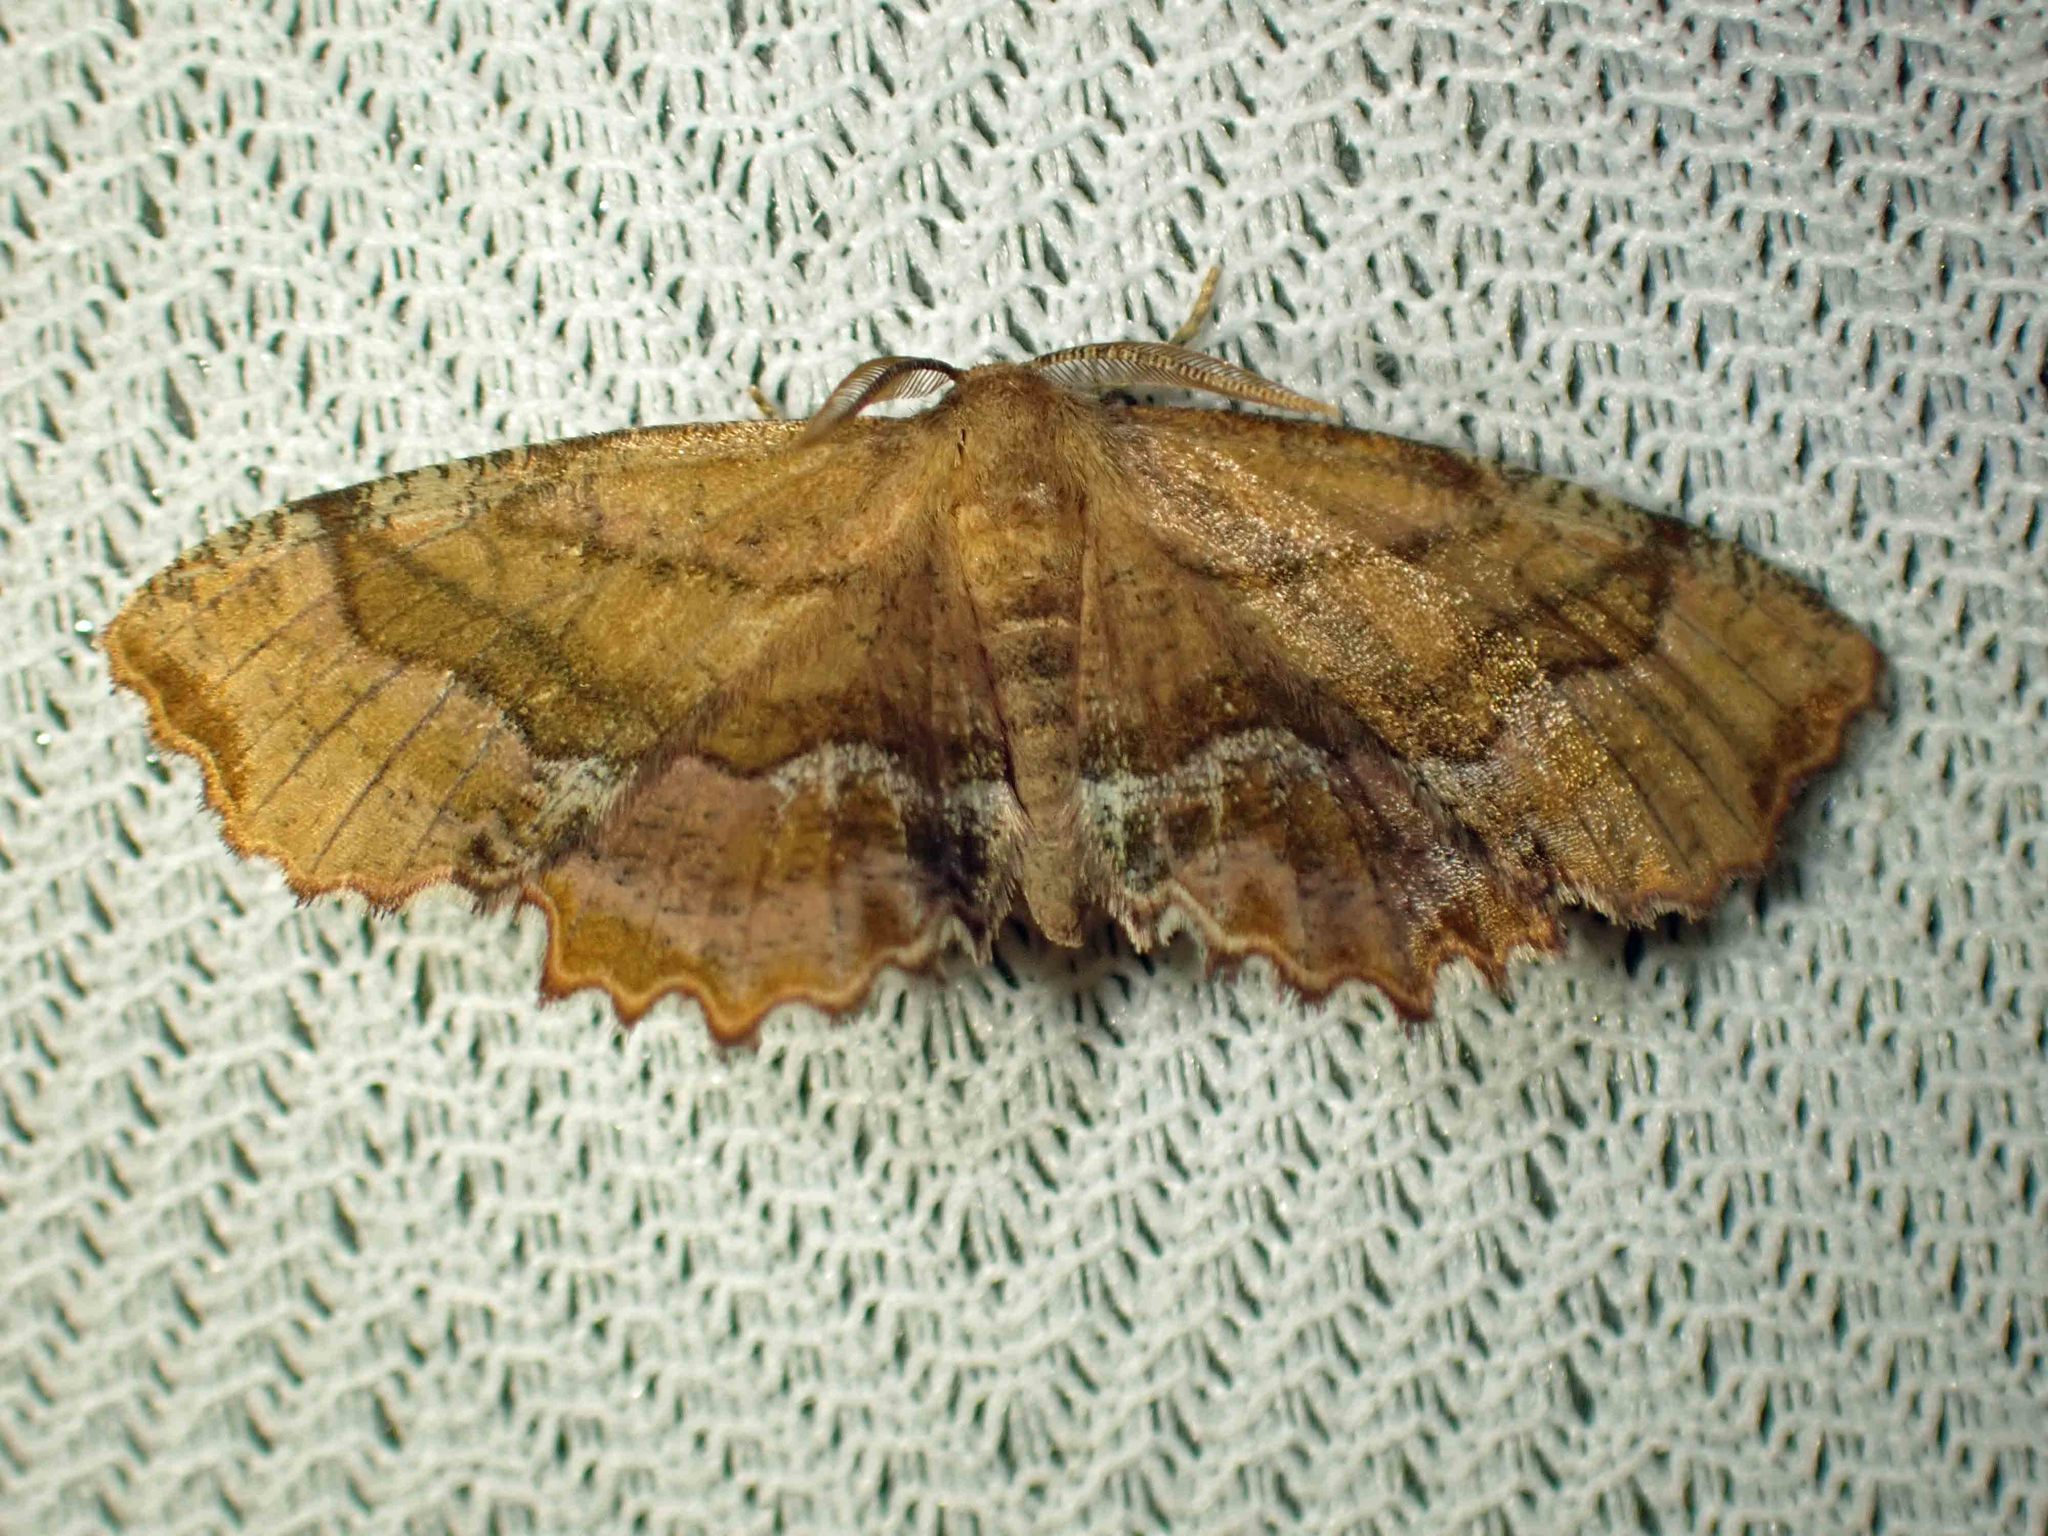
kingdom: Animalia
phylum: Arthropoda
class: Insecta
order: Lepidoptera
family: Geometridae
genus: Cepphis
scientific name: Cepphis armataria
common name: Scallop moth
